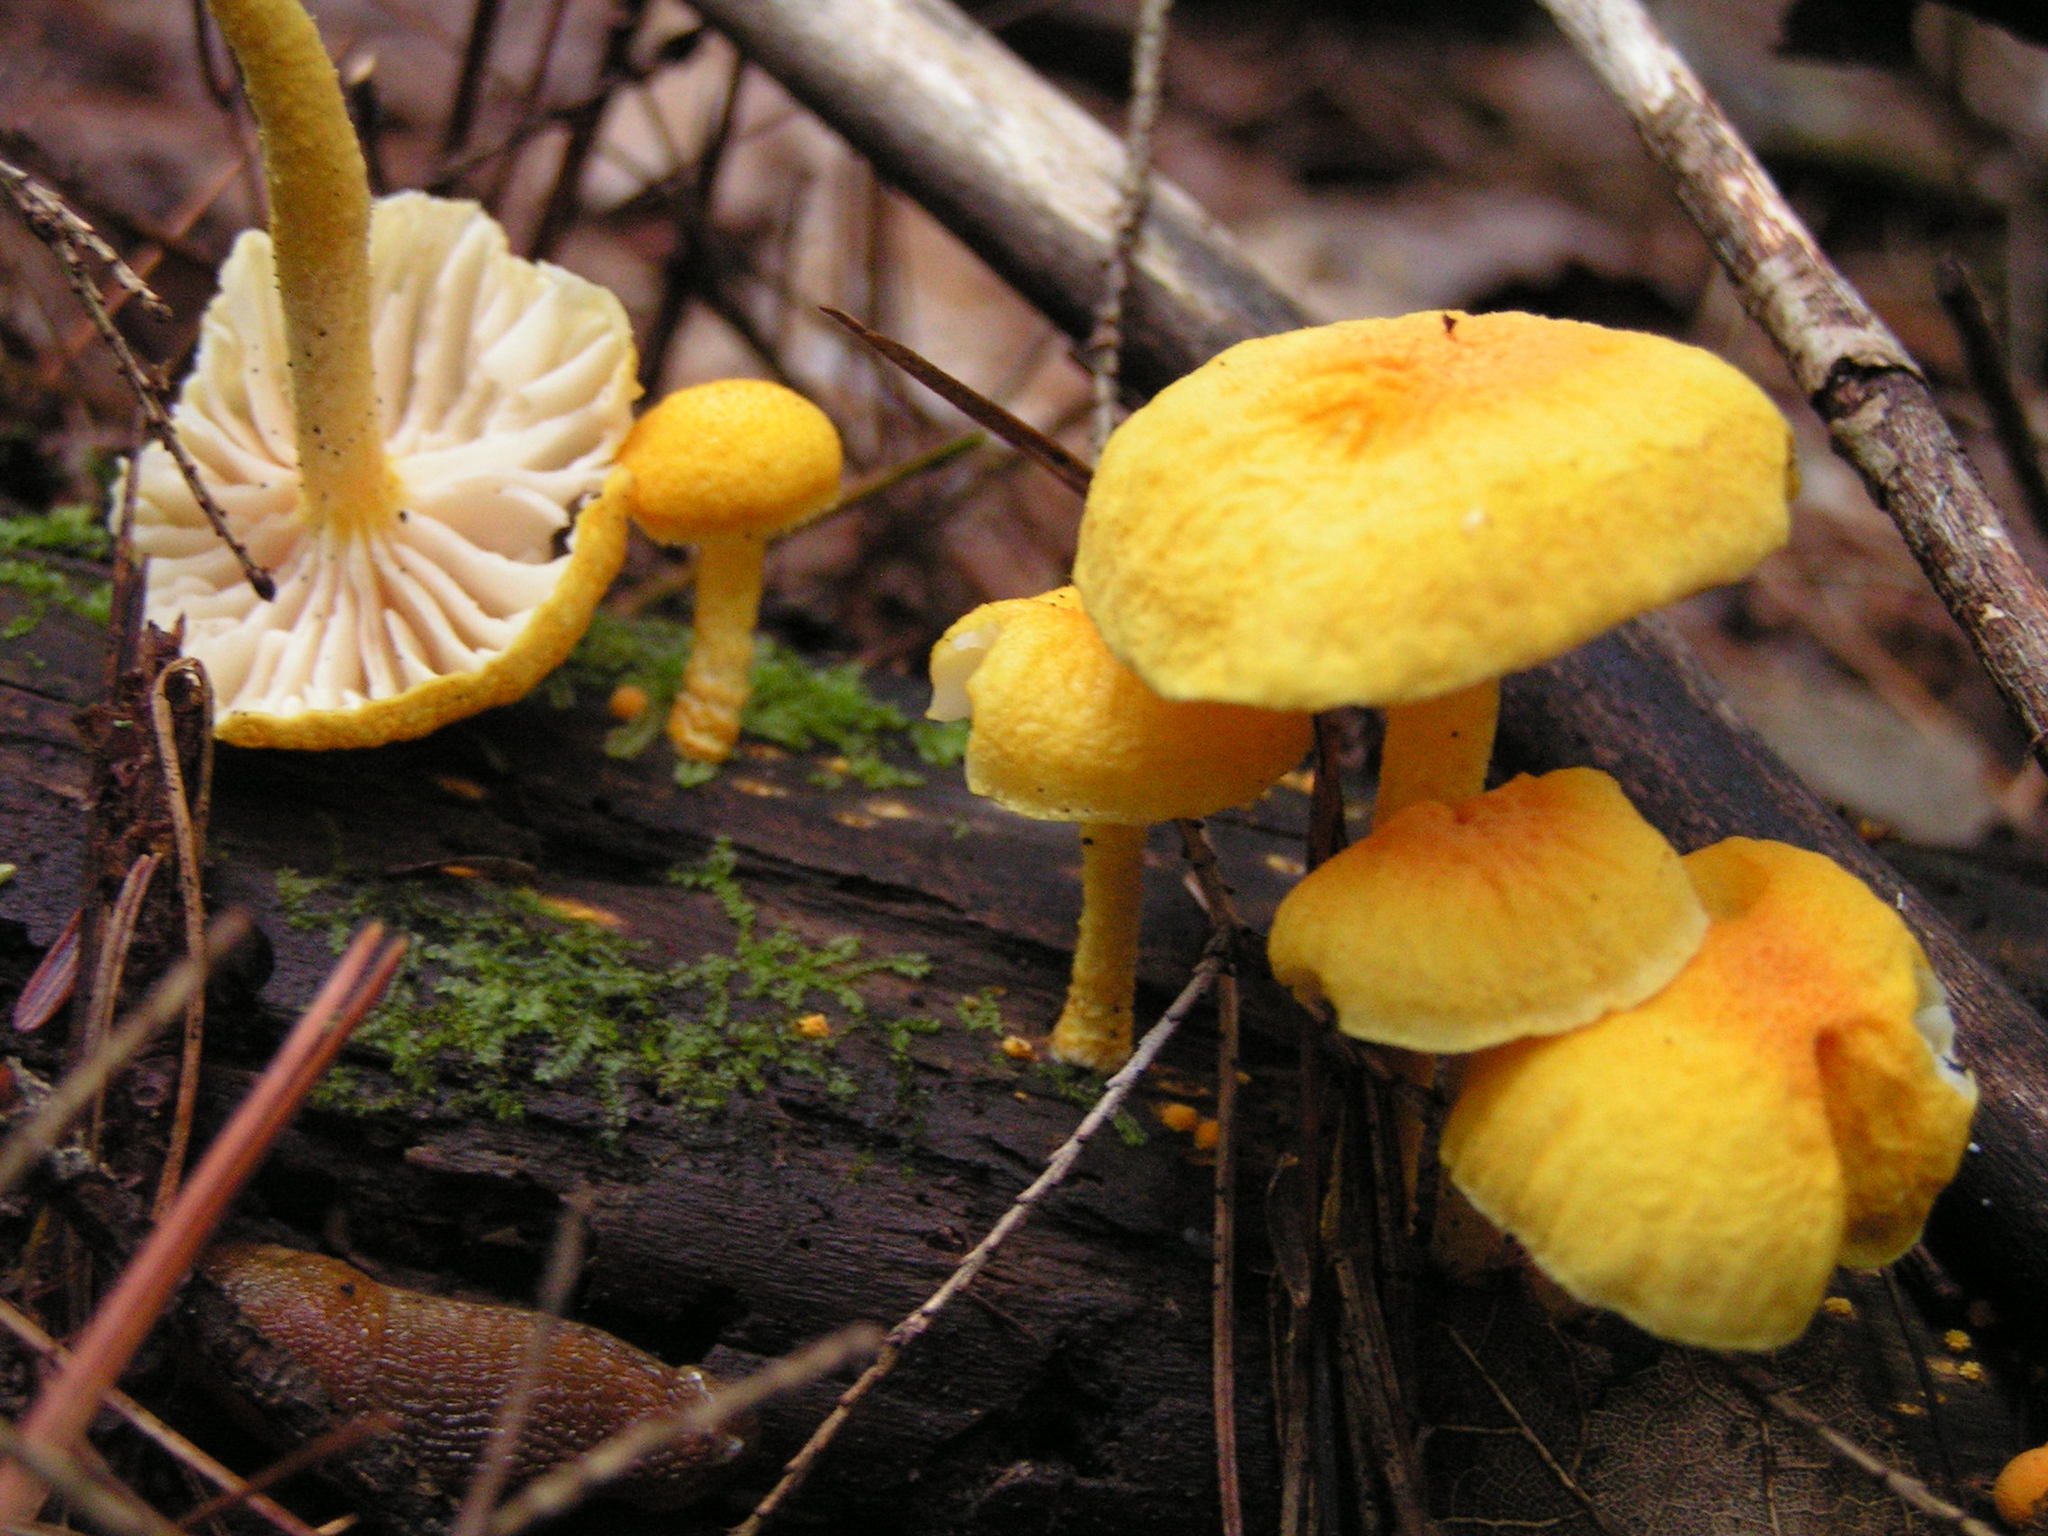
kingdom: Fungi
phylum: Basidiomycota
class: Agaricomycetes
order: Agaricales
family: Physalacriaceae
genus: Cyptotrama
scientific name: Cyptotrama chrysopepla
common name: Golden coincap
